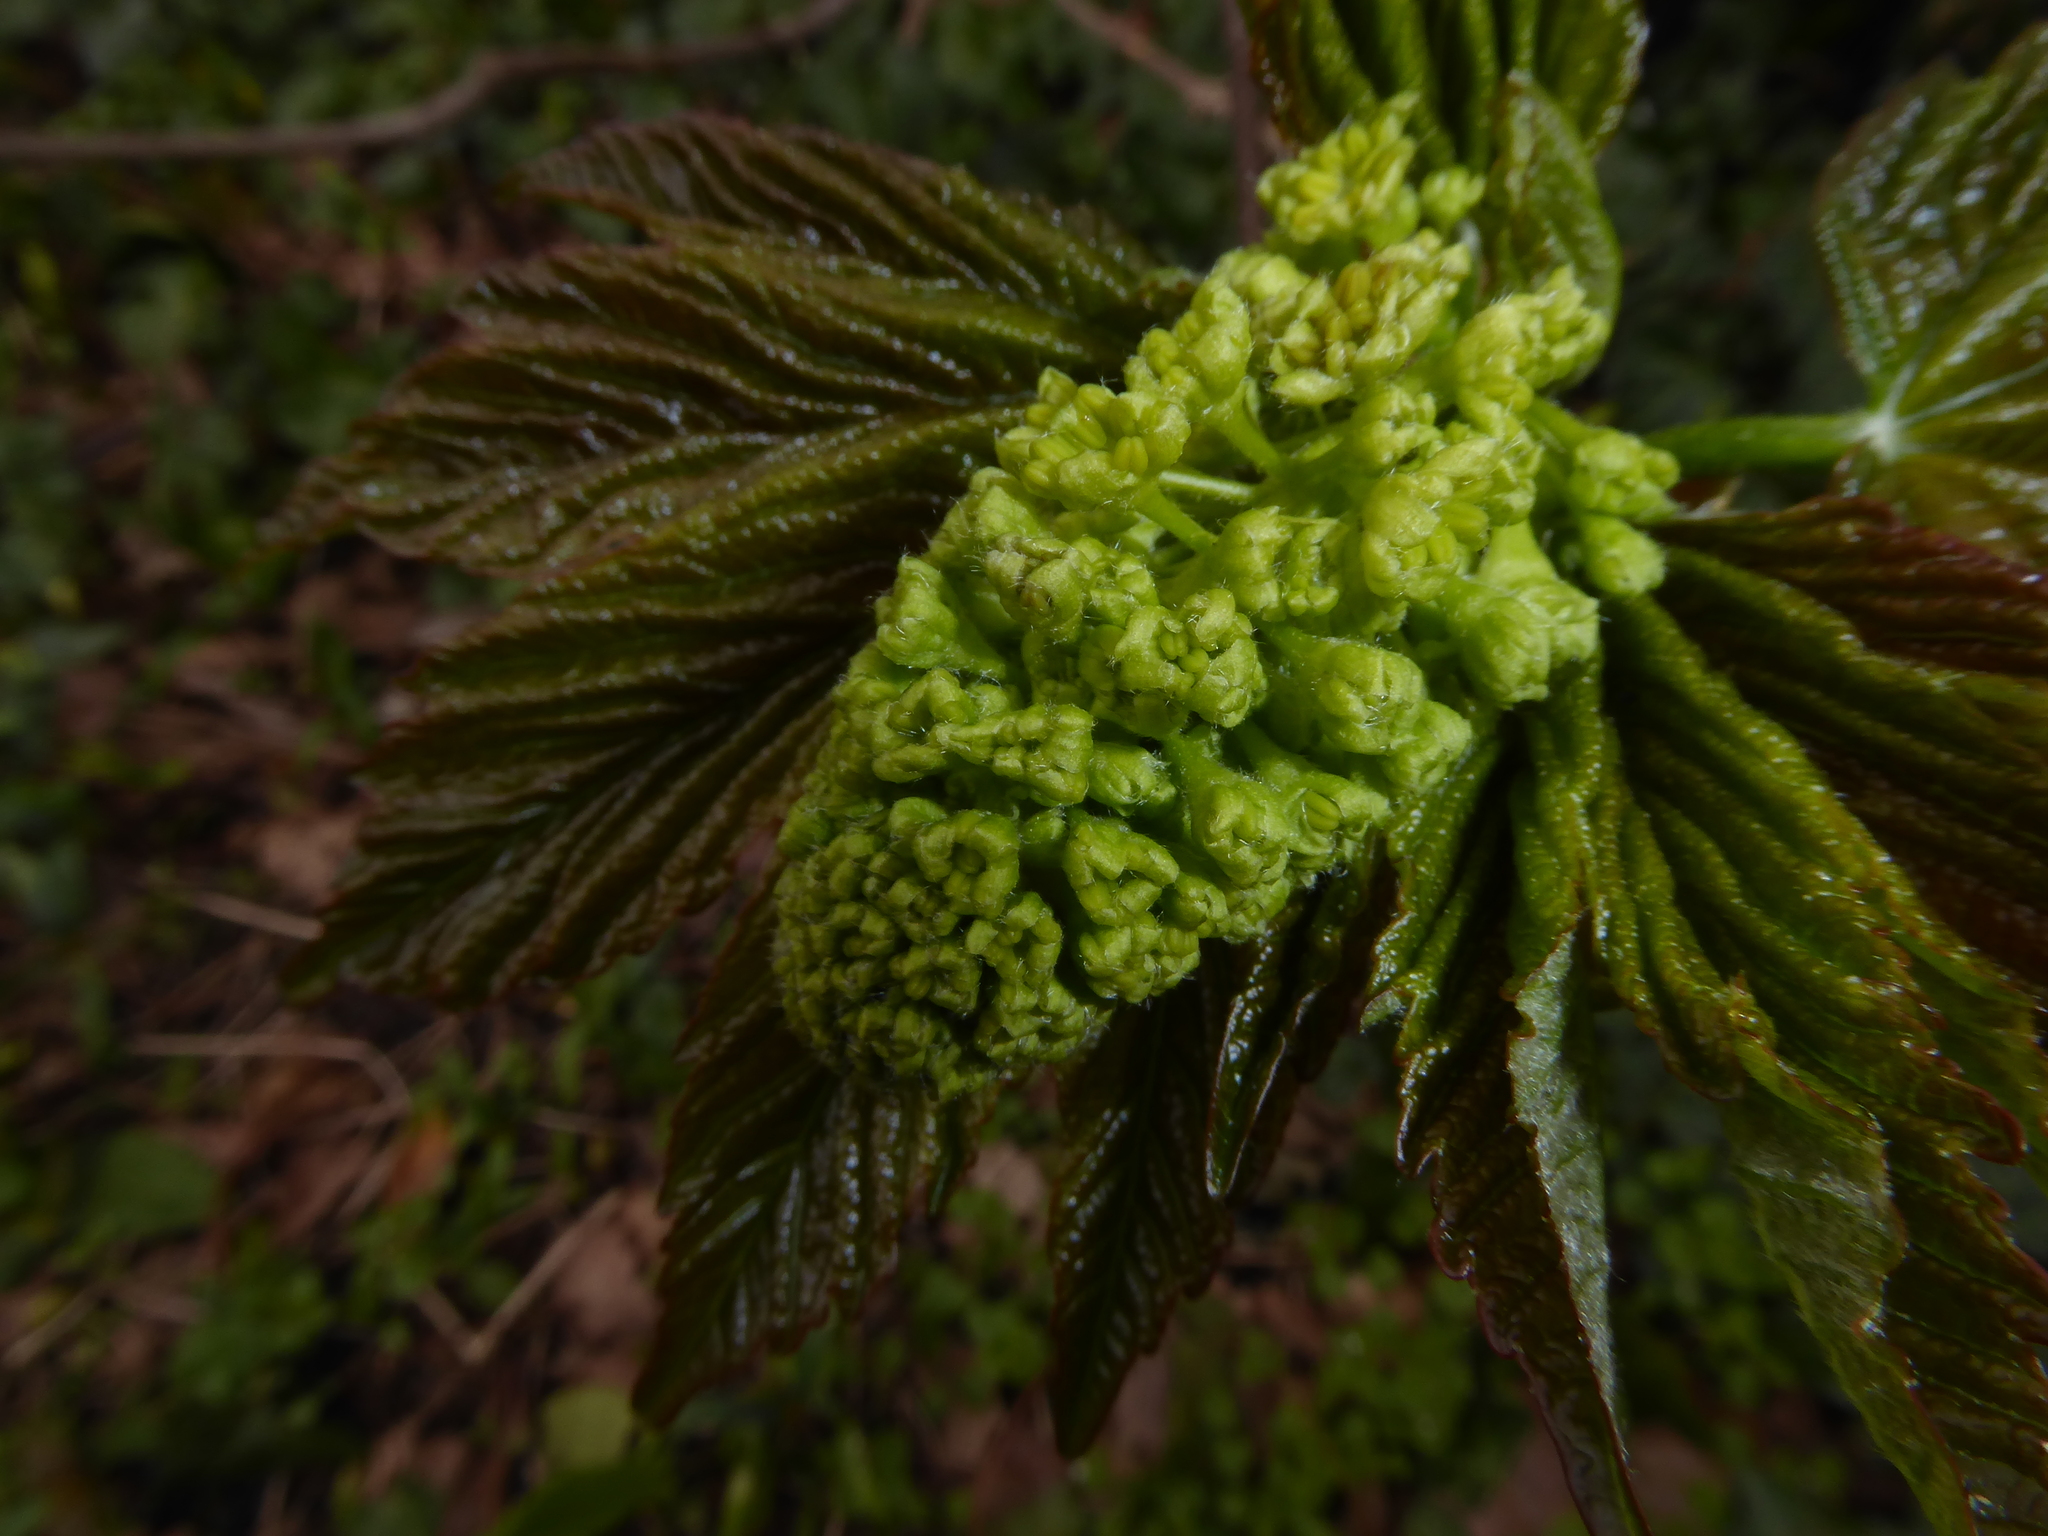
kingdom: Plantae
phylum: Tracheophyta
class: Magnoliopsida
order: Sapindales
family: Sapindaceae
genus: Acer
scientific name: Acer pseudoplatanus
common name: Sycamore
